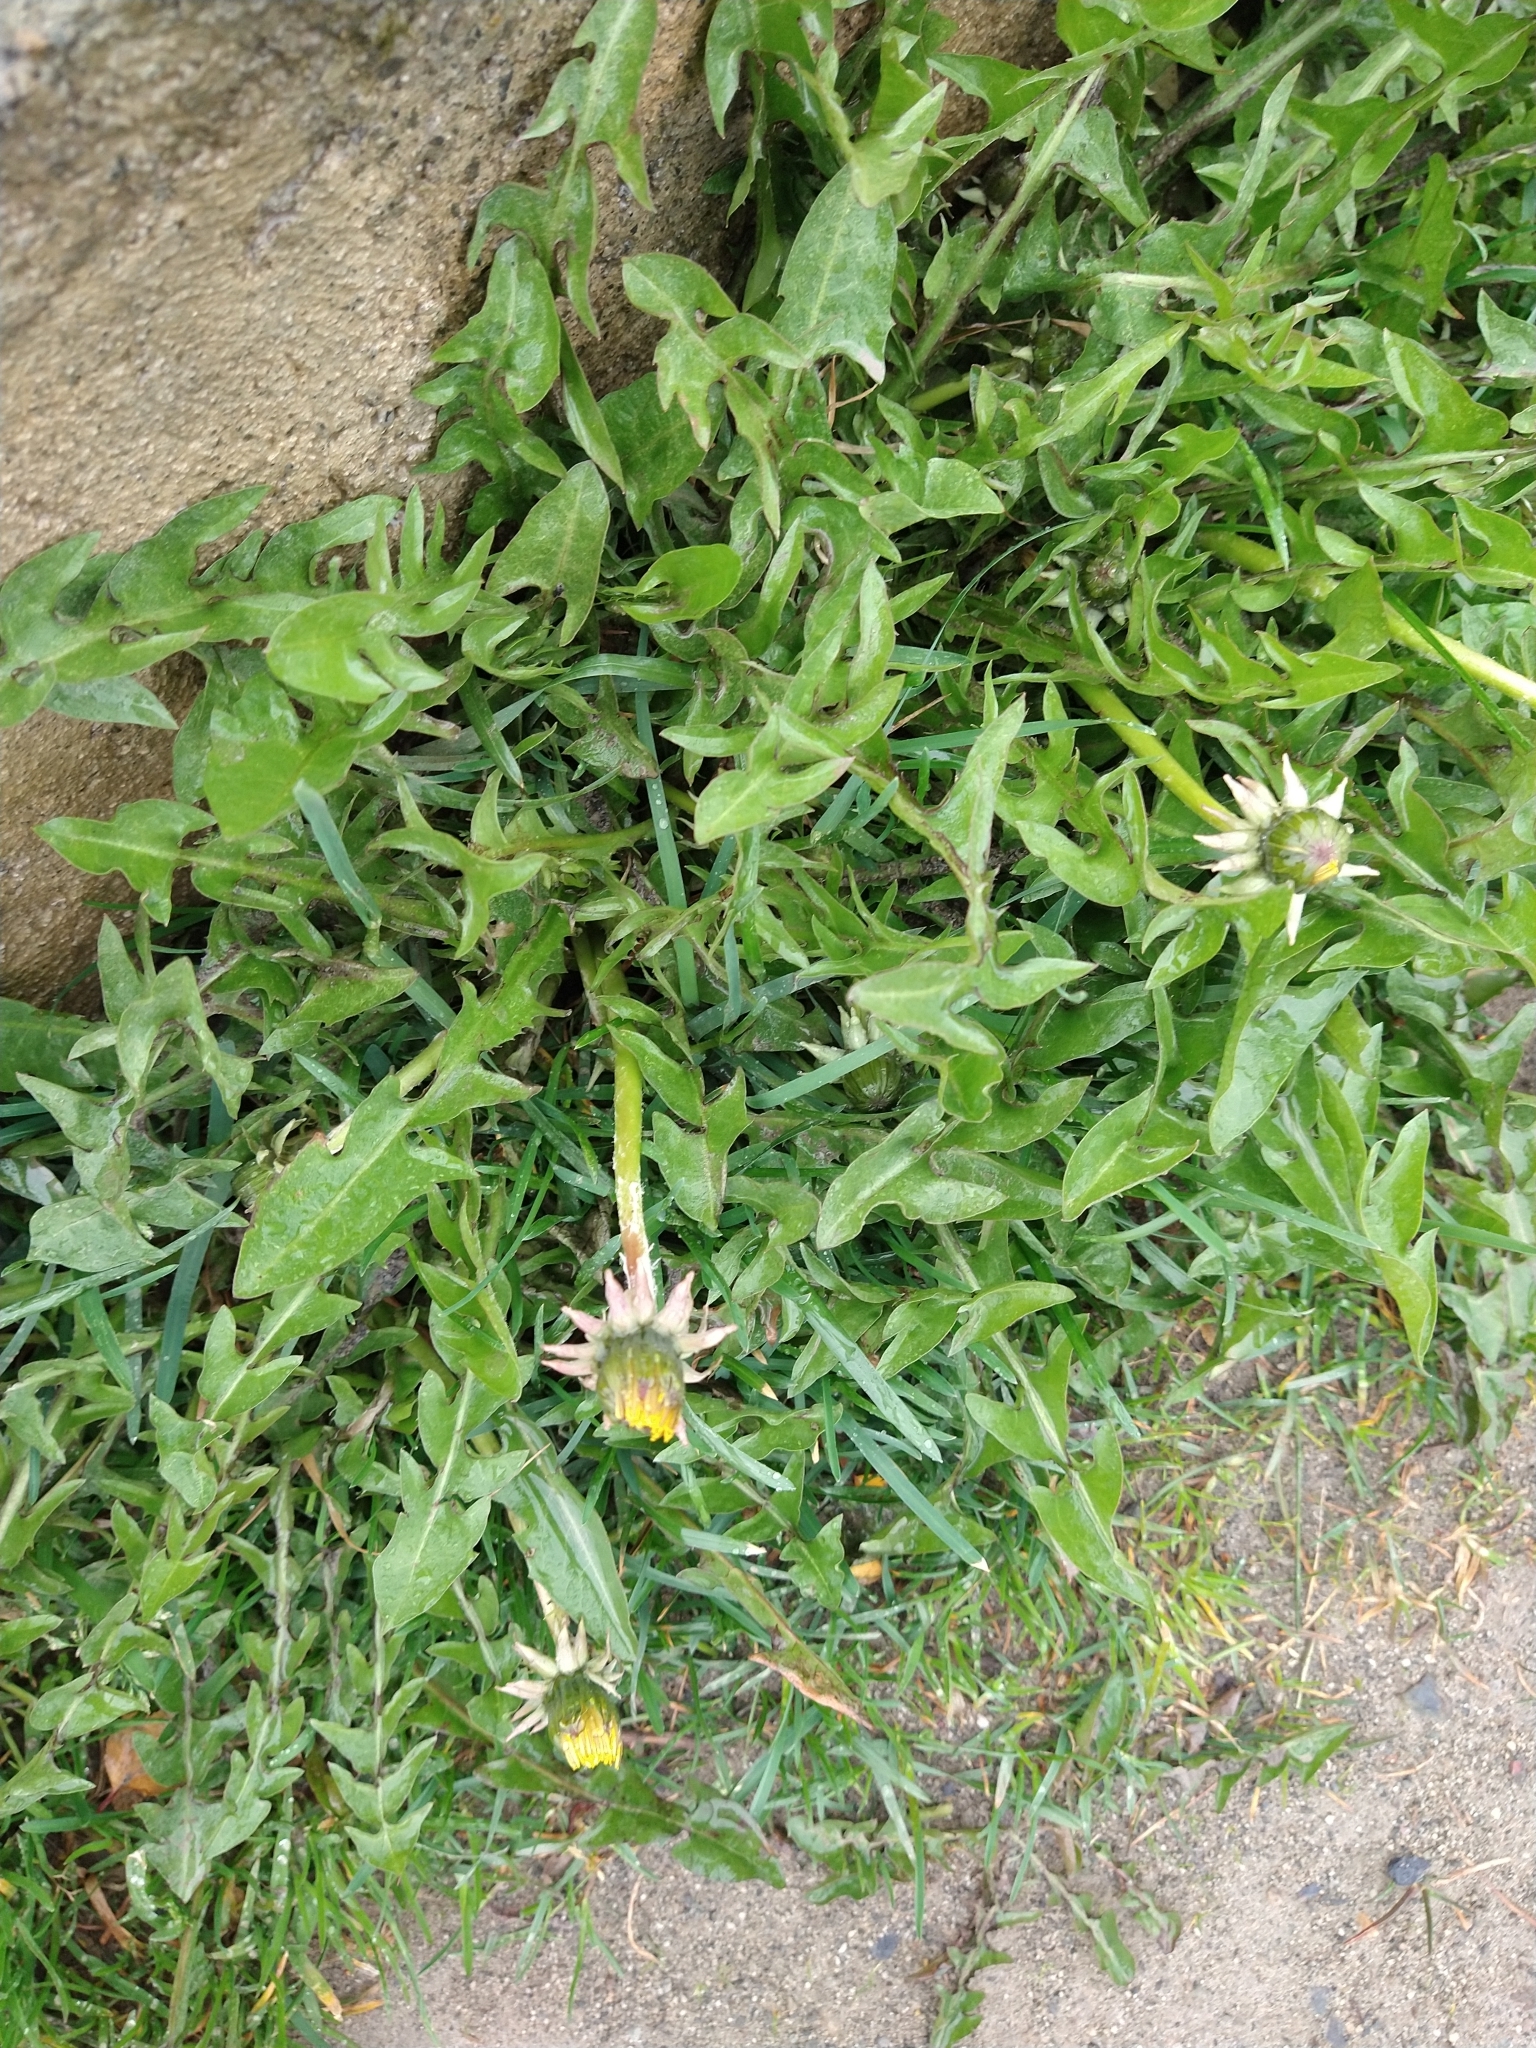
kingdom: Plantae
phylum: Tracheophyta
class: Magnoliopsida
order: Asterales
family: Asteraceae
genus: Taraxacum
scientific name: Taraxacum officinale
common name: Common dandelion
